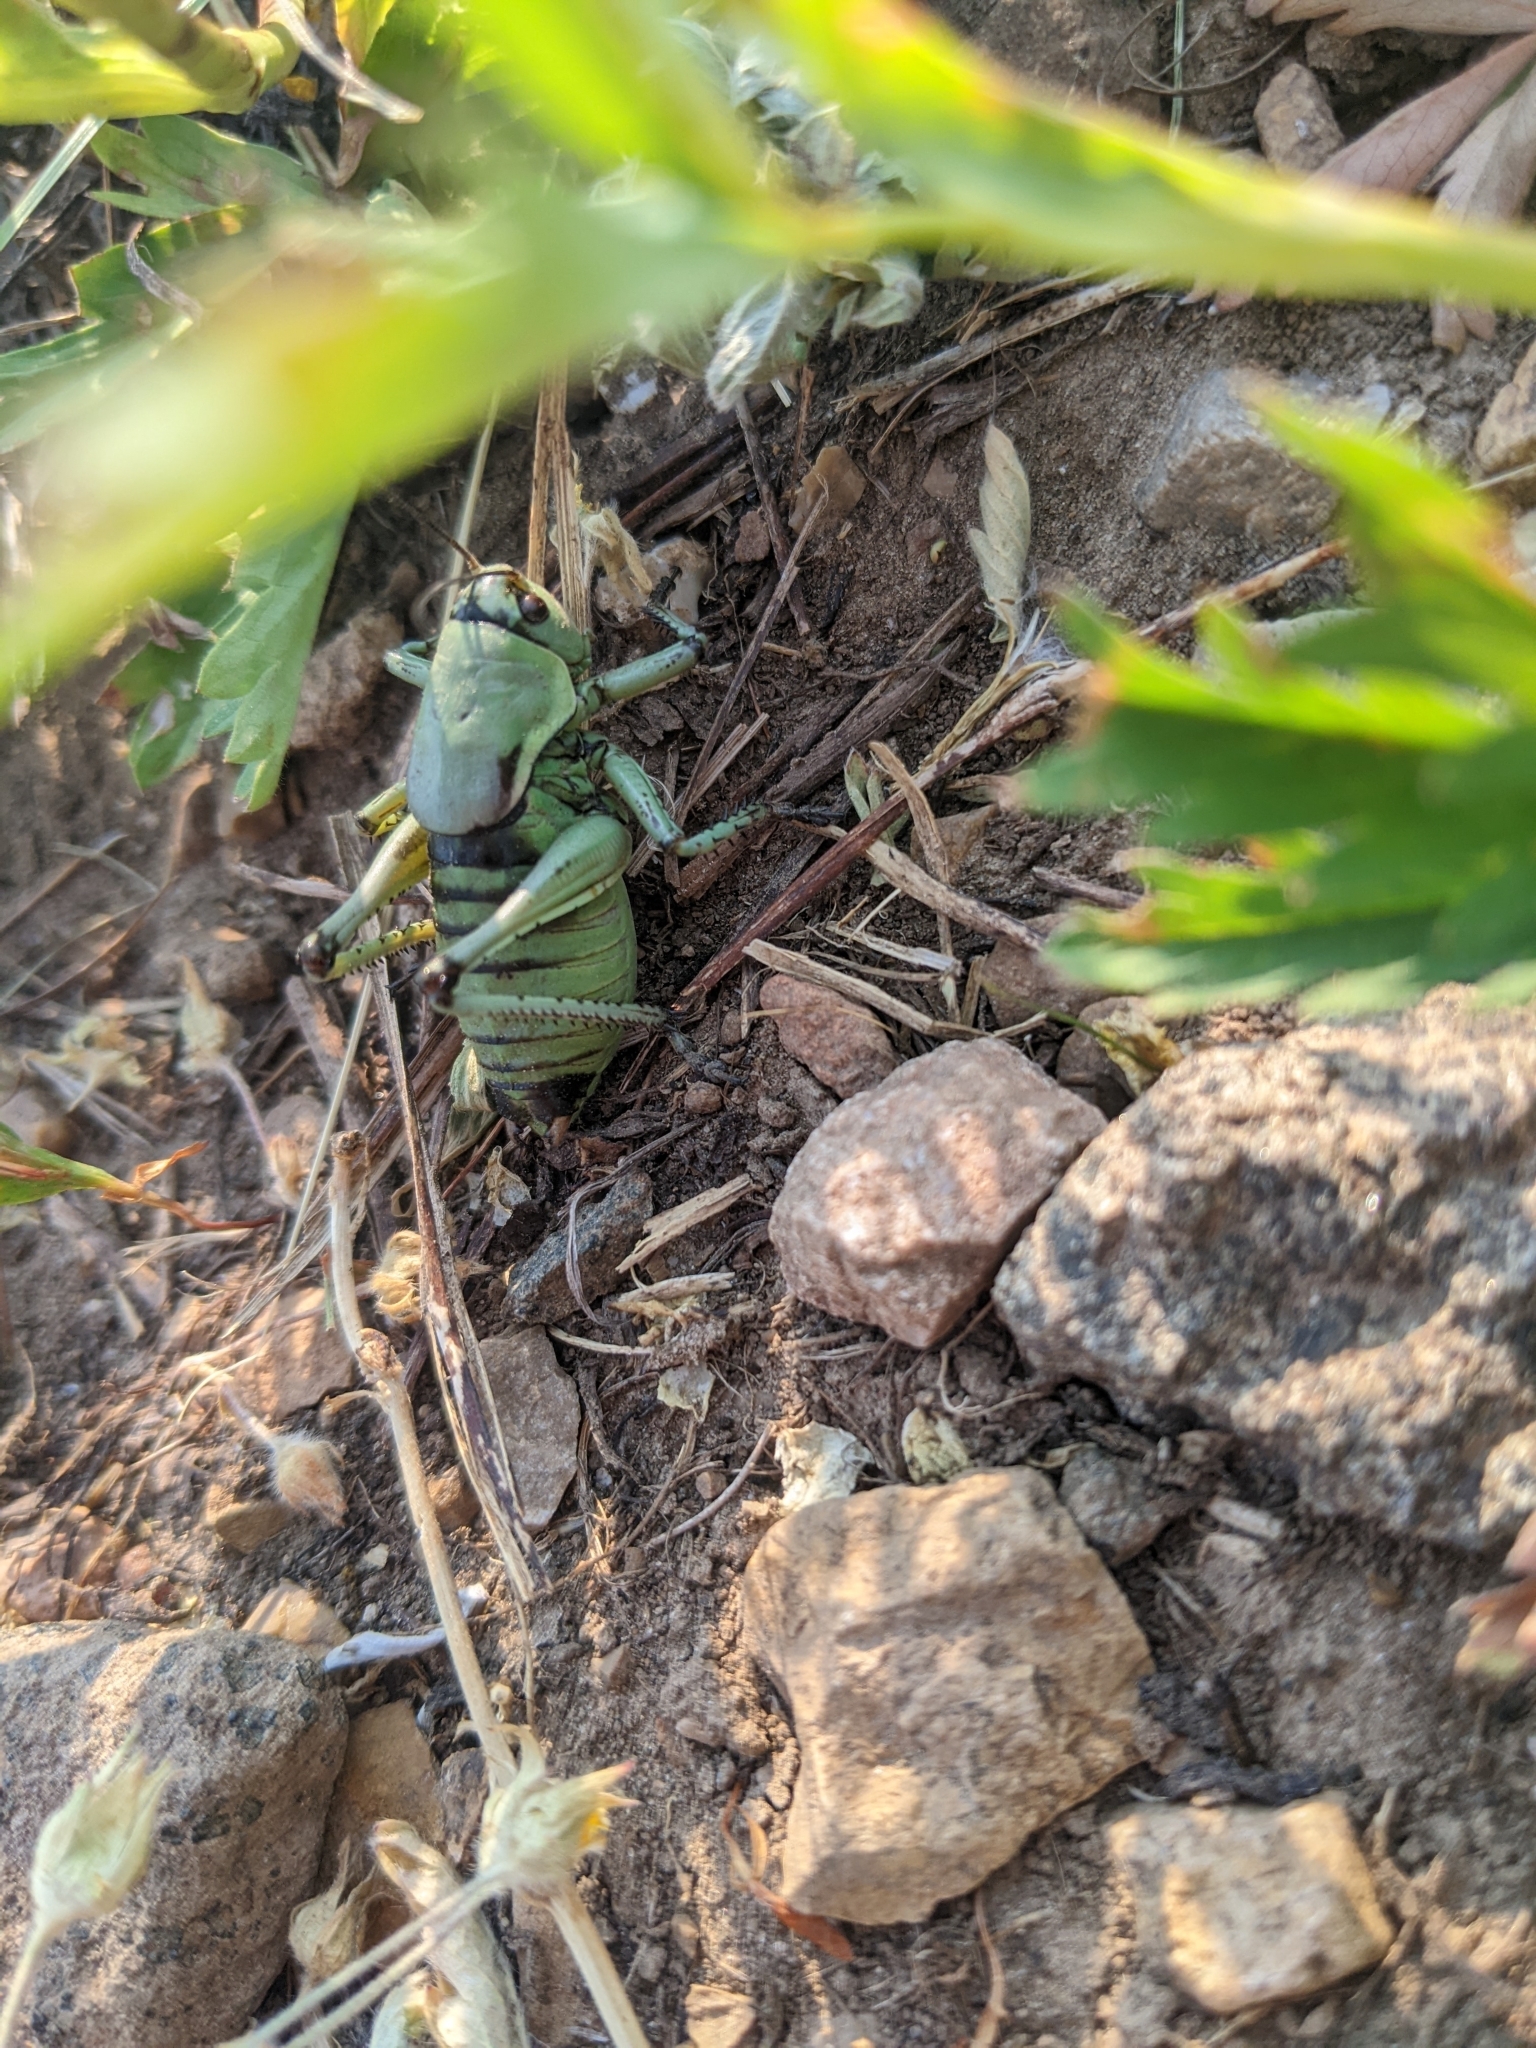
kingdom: Animalia
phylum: Arthropoda
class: Insecta
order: Orthoptera
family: Tettigoniidae
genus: Anabrus
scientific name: Anabrus simplex
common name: Mormon cricket
